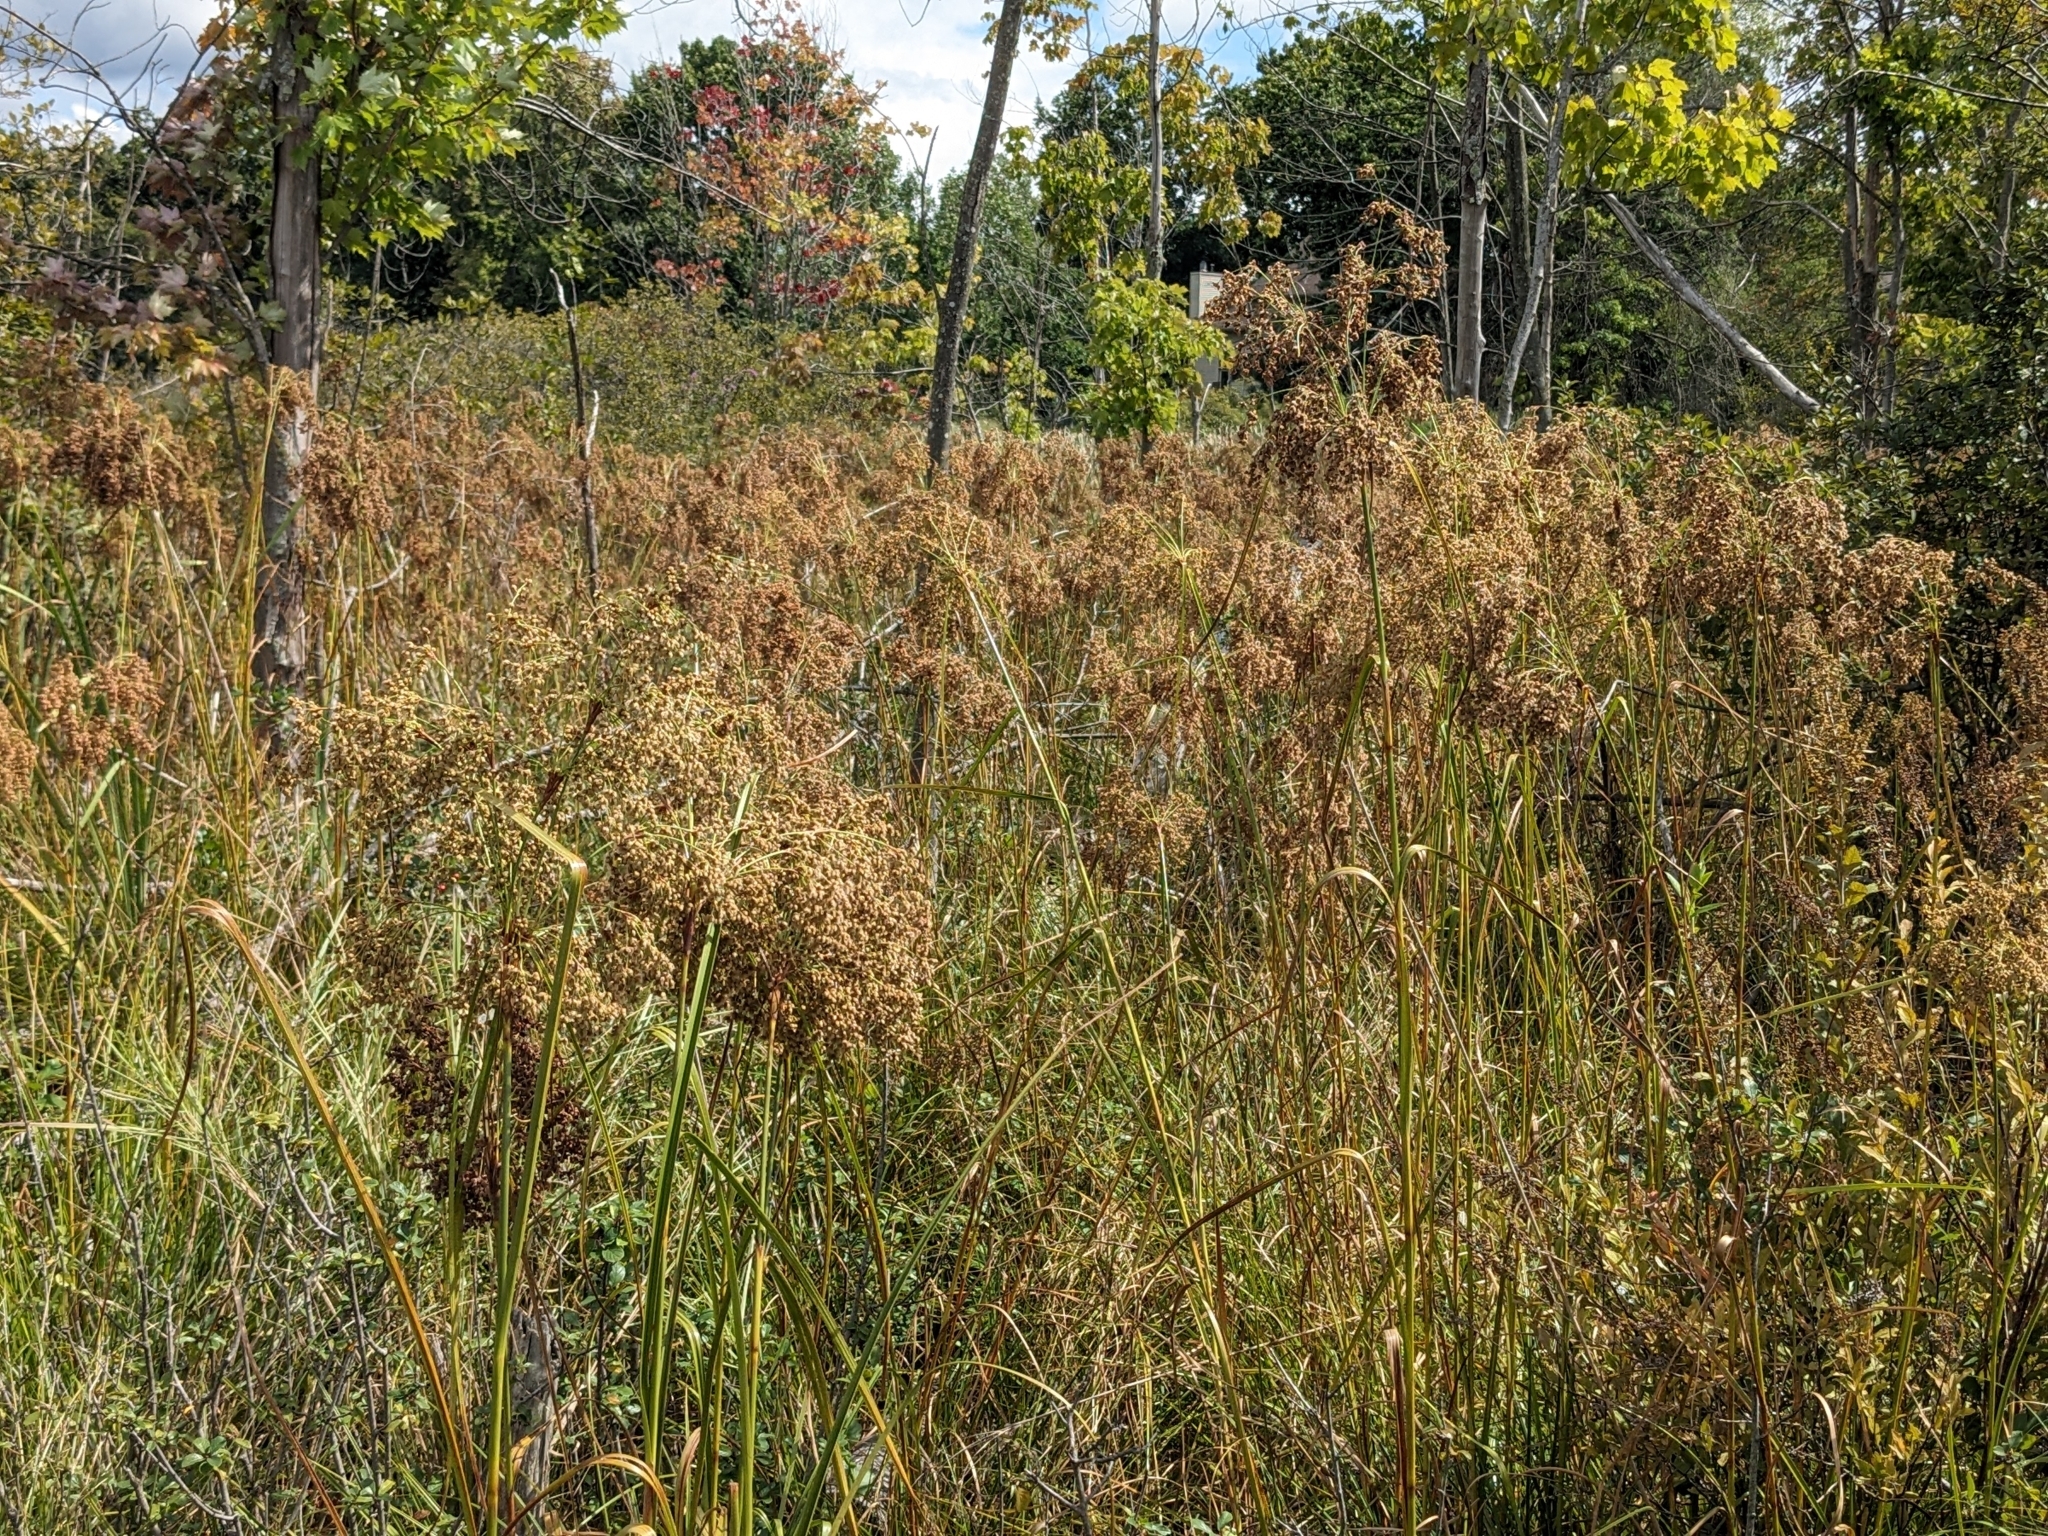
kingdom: Plantae
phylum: Tracheophyta
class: Liliopsida
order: Poales
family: Cyperaceae
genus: Scirpus
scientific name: Scirpus cyperinus
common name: Black-sheathed bulrush
